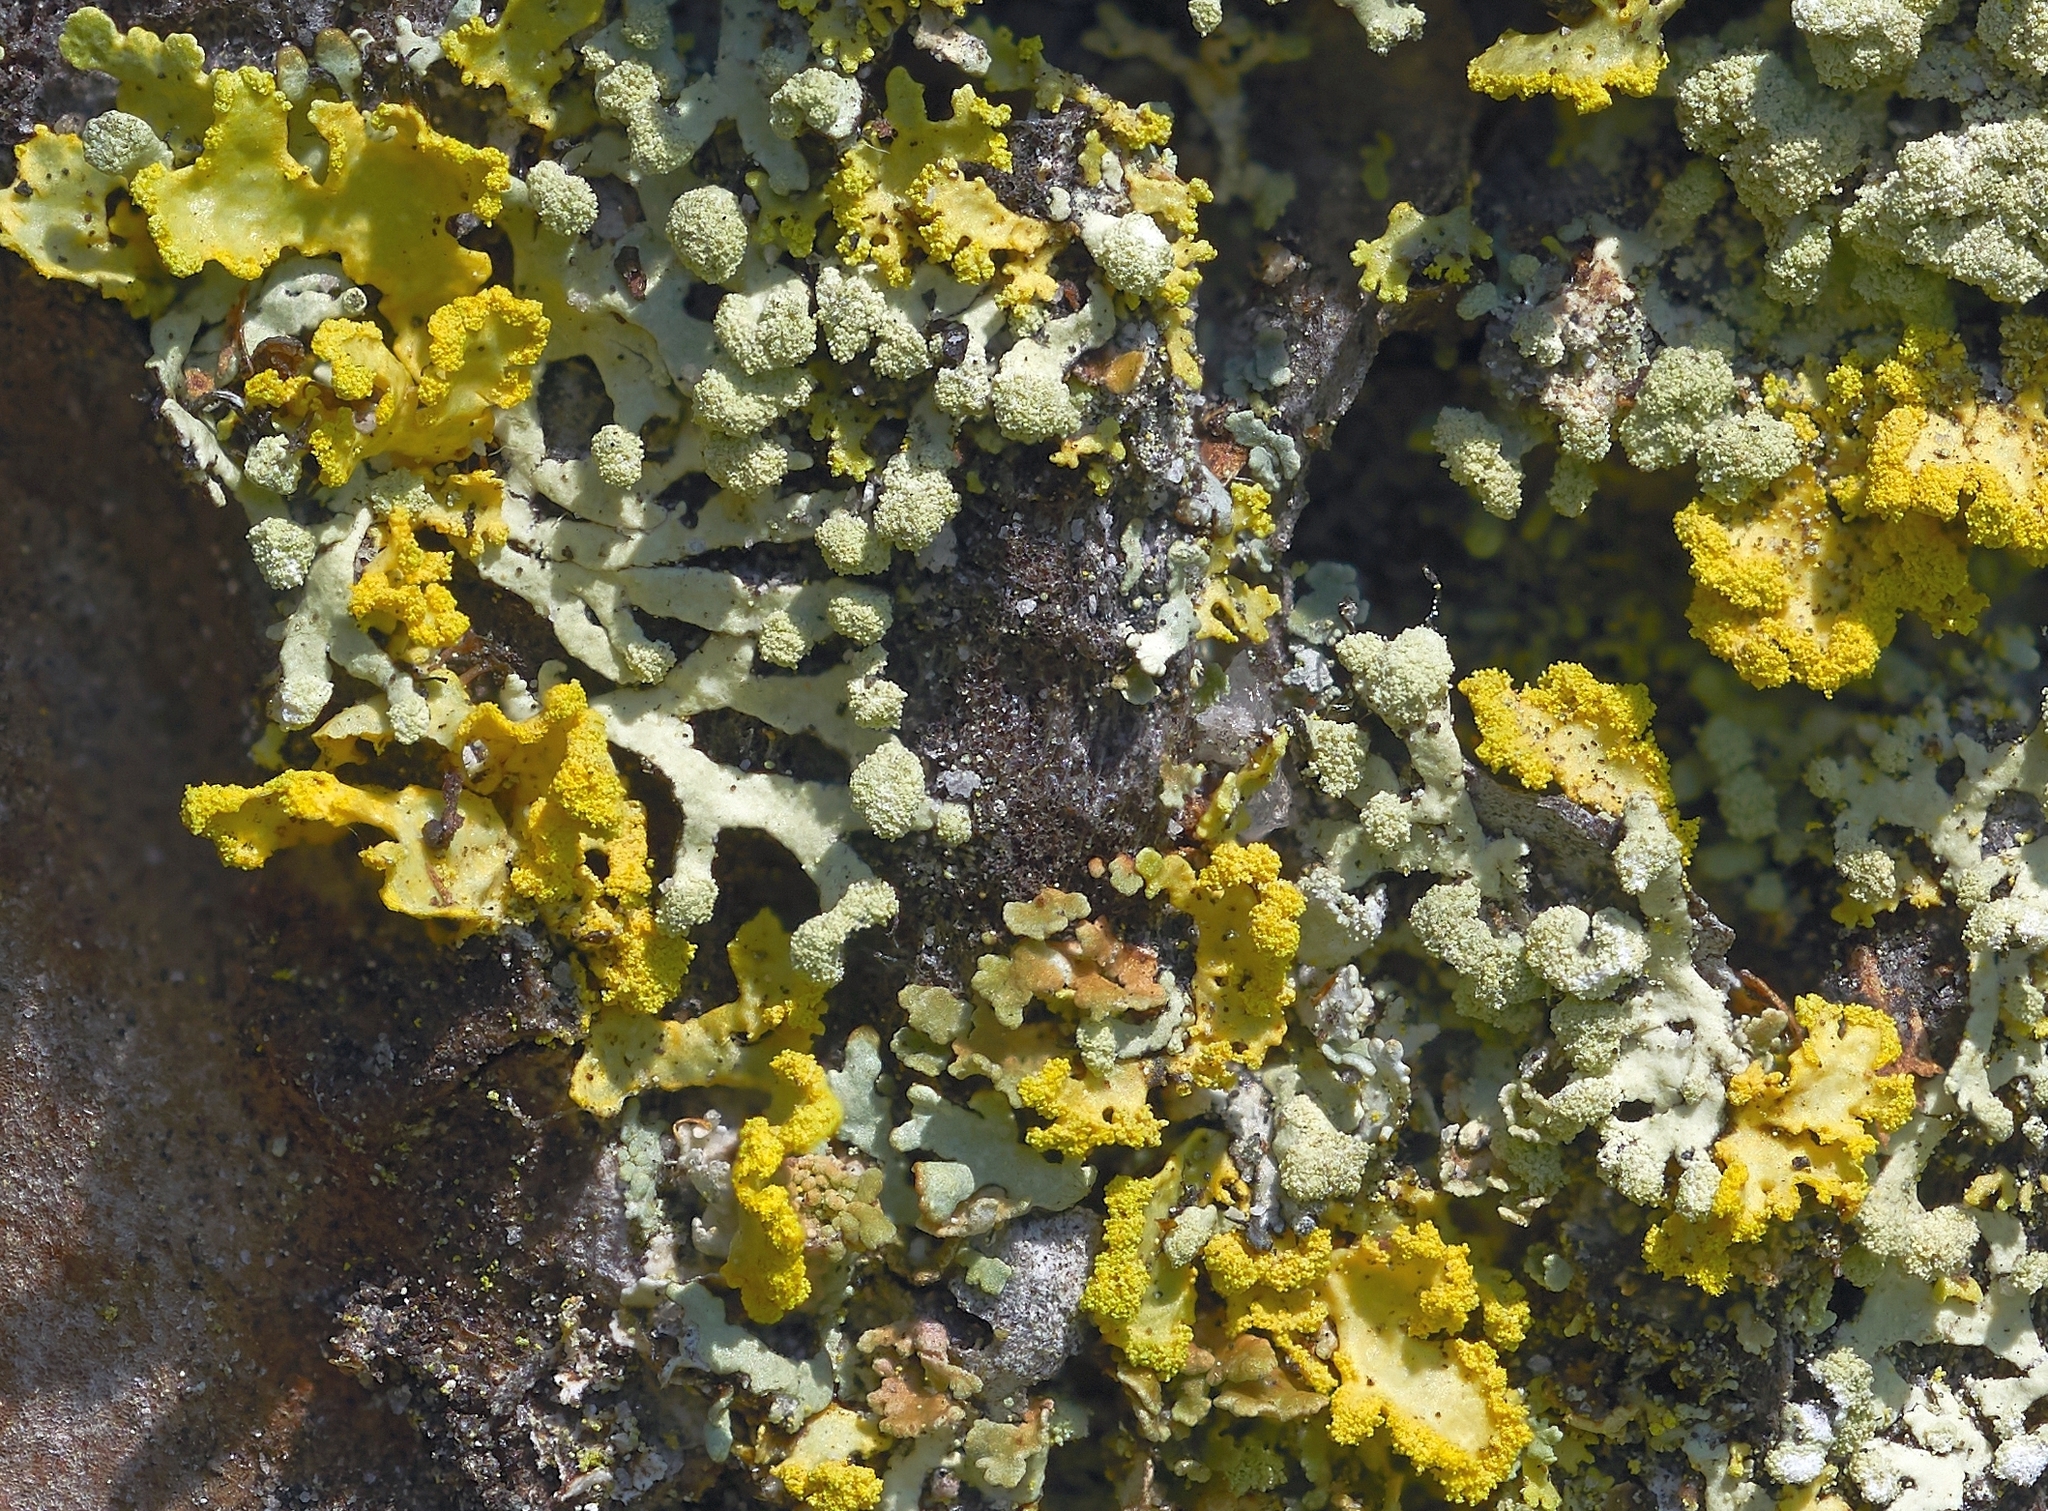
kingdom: Fungi
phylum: Ascomycota
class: Lecanoromycetes
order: Lecanorales
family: Parmeliaceae
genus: Parmeliopsis
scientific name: Parmeliopsis
